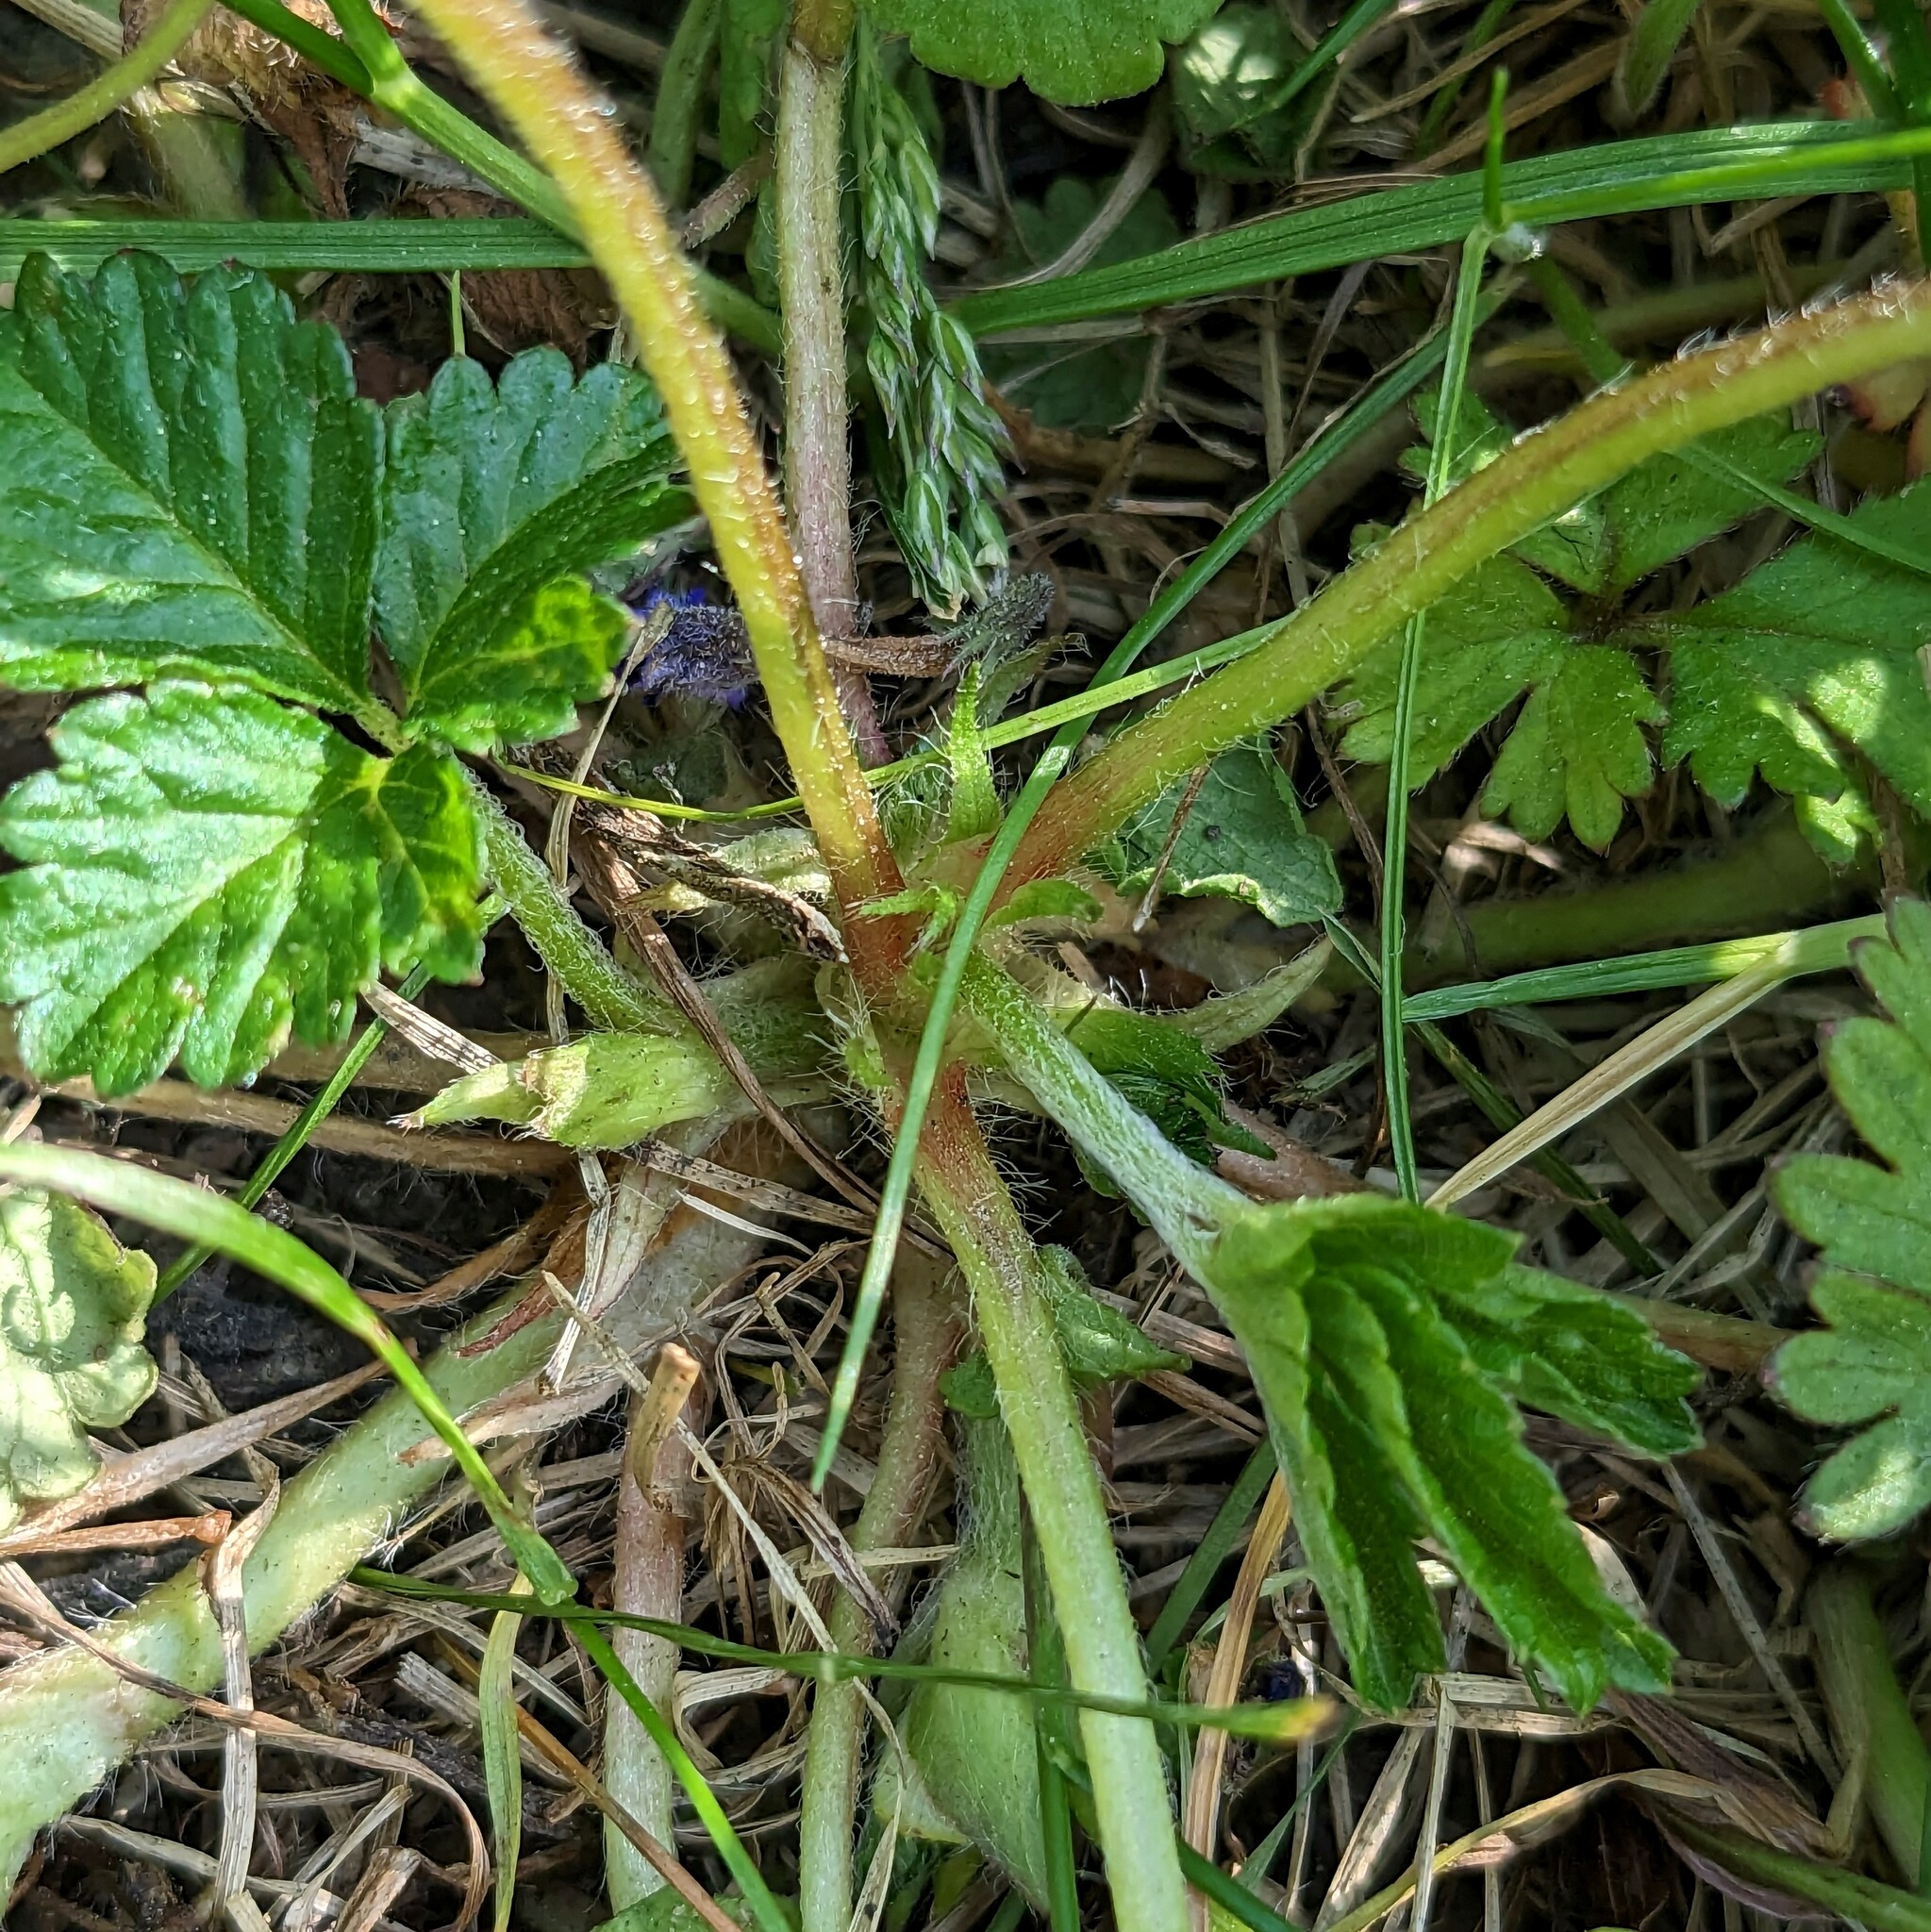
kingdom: Plantae
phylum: Tracheophyta
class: Magnoliopsida
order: Rosales
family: Rosaceae
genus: Potentilla
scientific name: Potentilla indica
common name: Yellow-flowered strawberry
